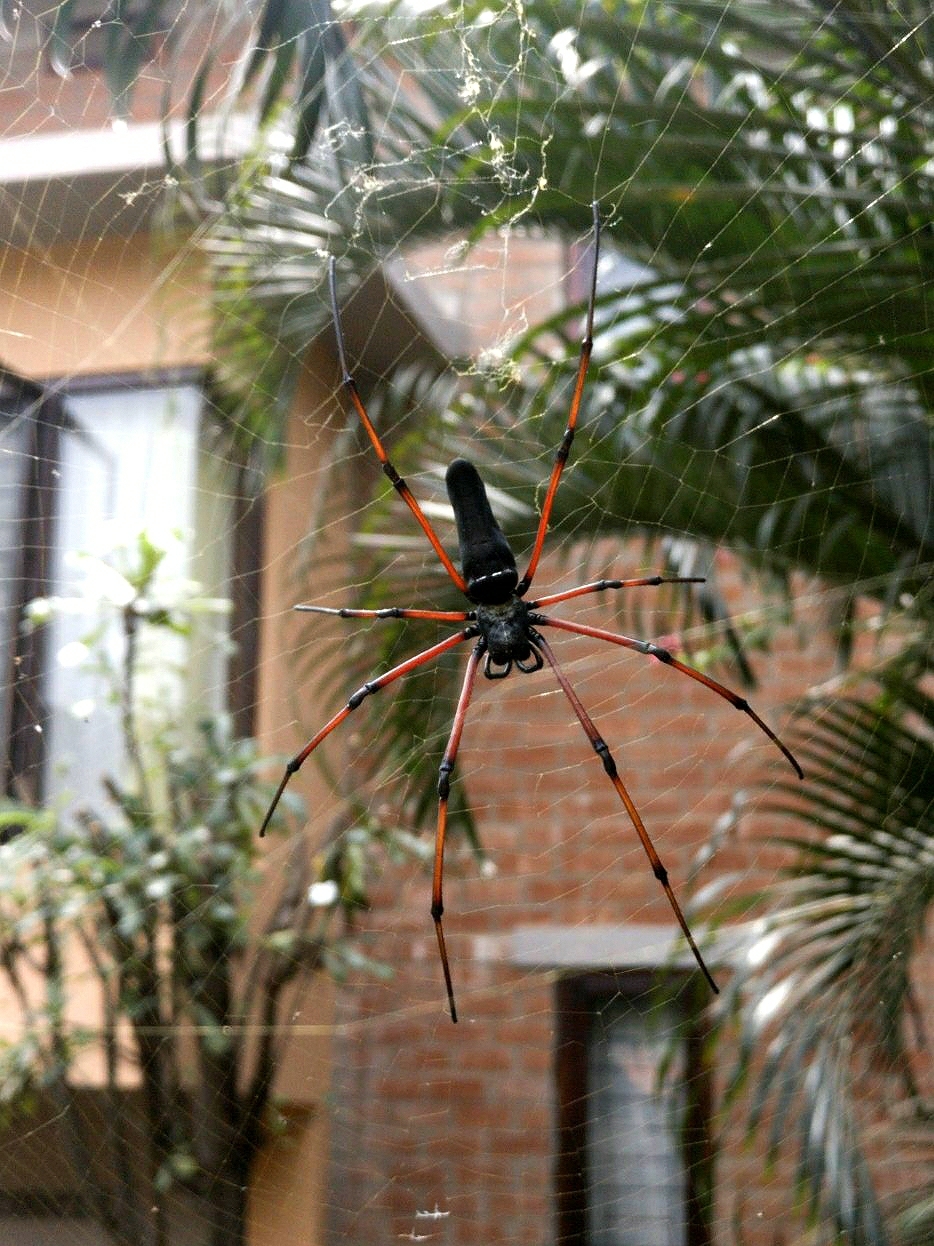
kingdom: Animalia
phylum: Arthropoda
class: Arachnida
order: Araneae
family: Araneidae
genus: Nephila
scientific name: Nephila kuhli
